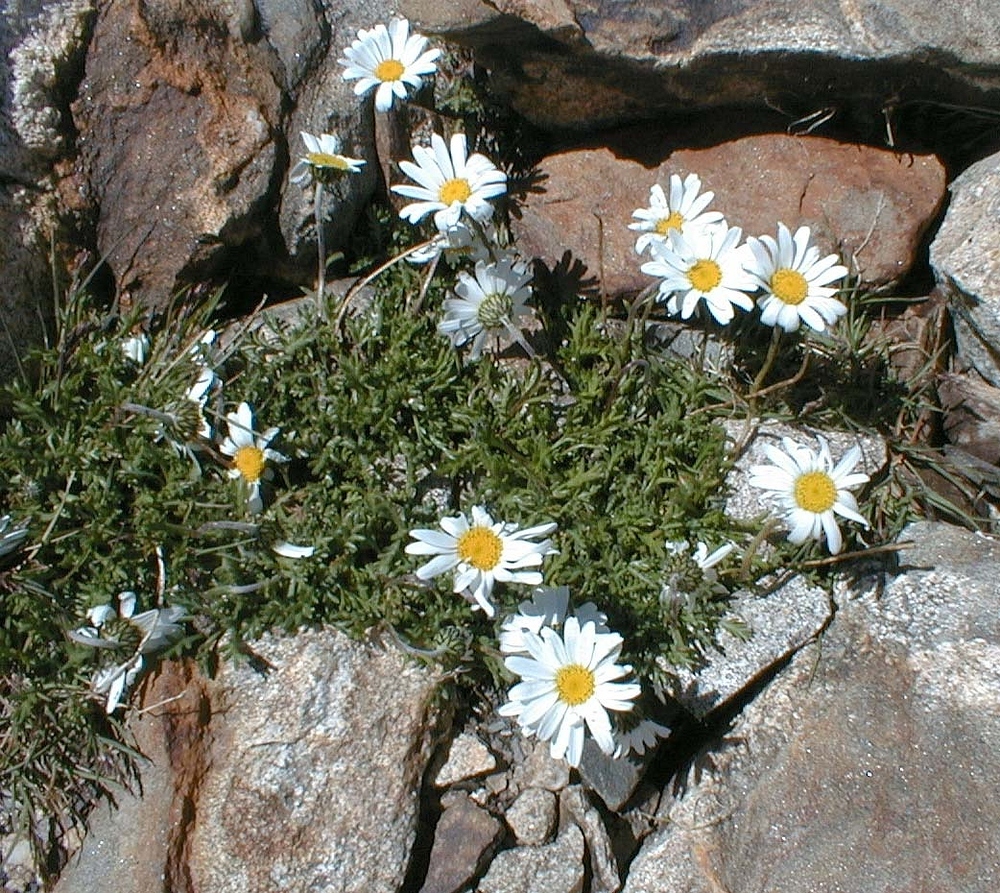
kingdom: Plantae
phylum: Tracheophyta
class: Magnoliopsida
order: Asterales
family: Asteraceae
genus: Leucanthemopsis
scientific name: Leucanthemopsis alpina
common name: Alpine moon daisy
